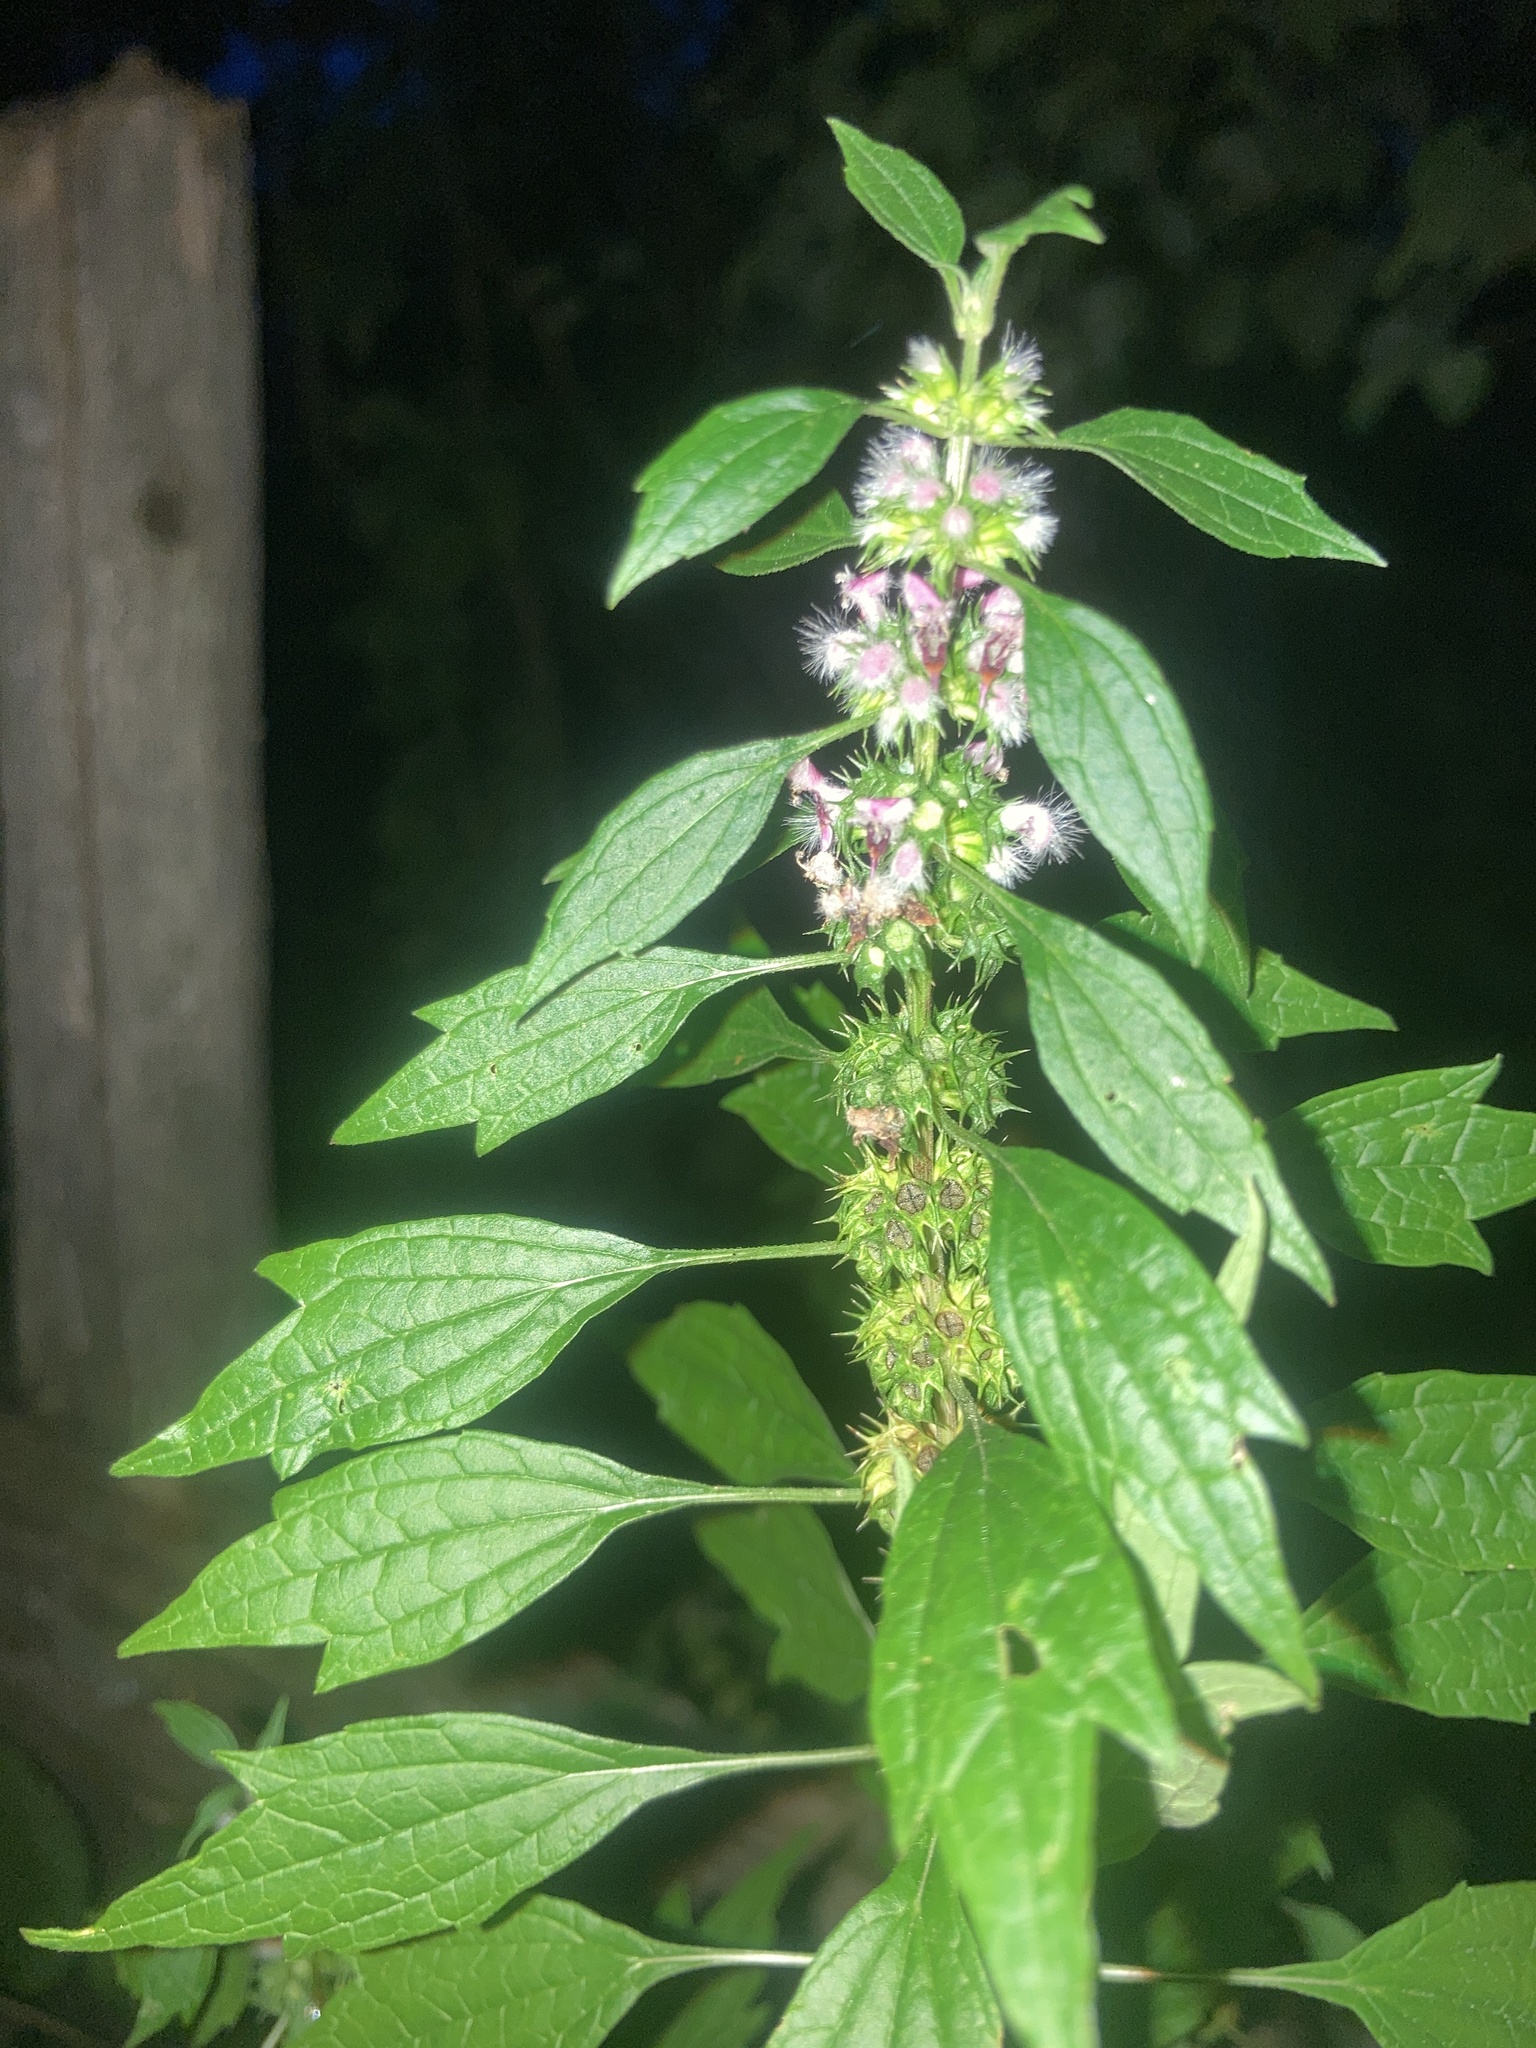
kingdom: Plantae
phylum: Tracheophyta
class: Magnoliopsida
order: Lamiales
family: Lamiaceae
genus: Leonurus
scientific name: Leonurus cardiaca
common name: Motherwort
